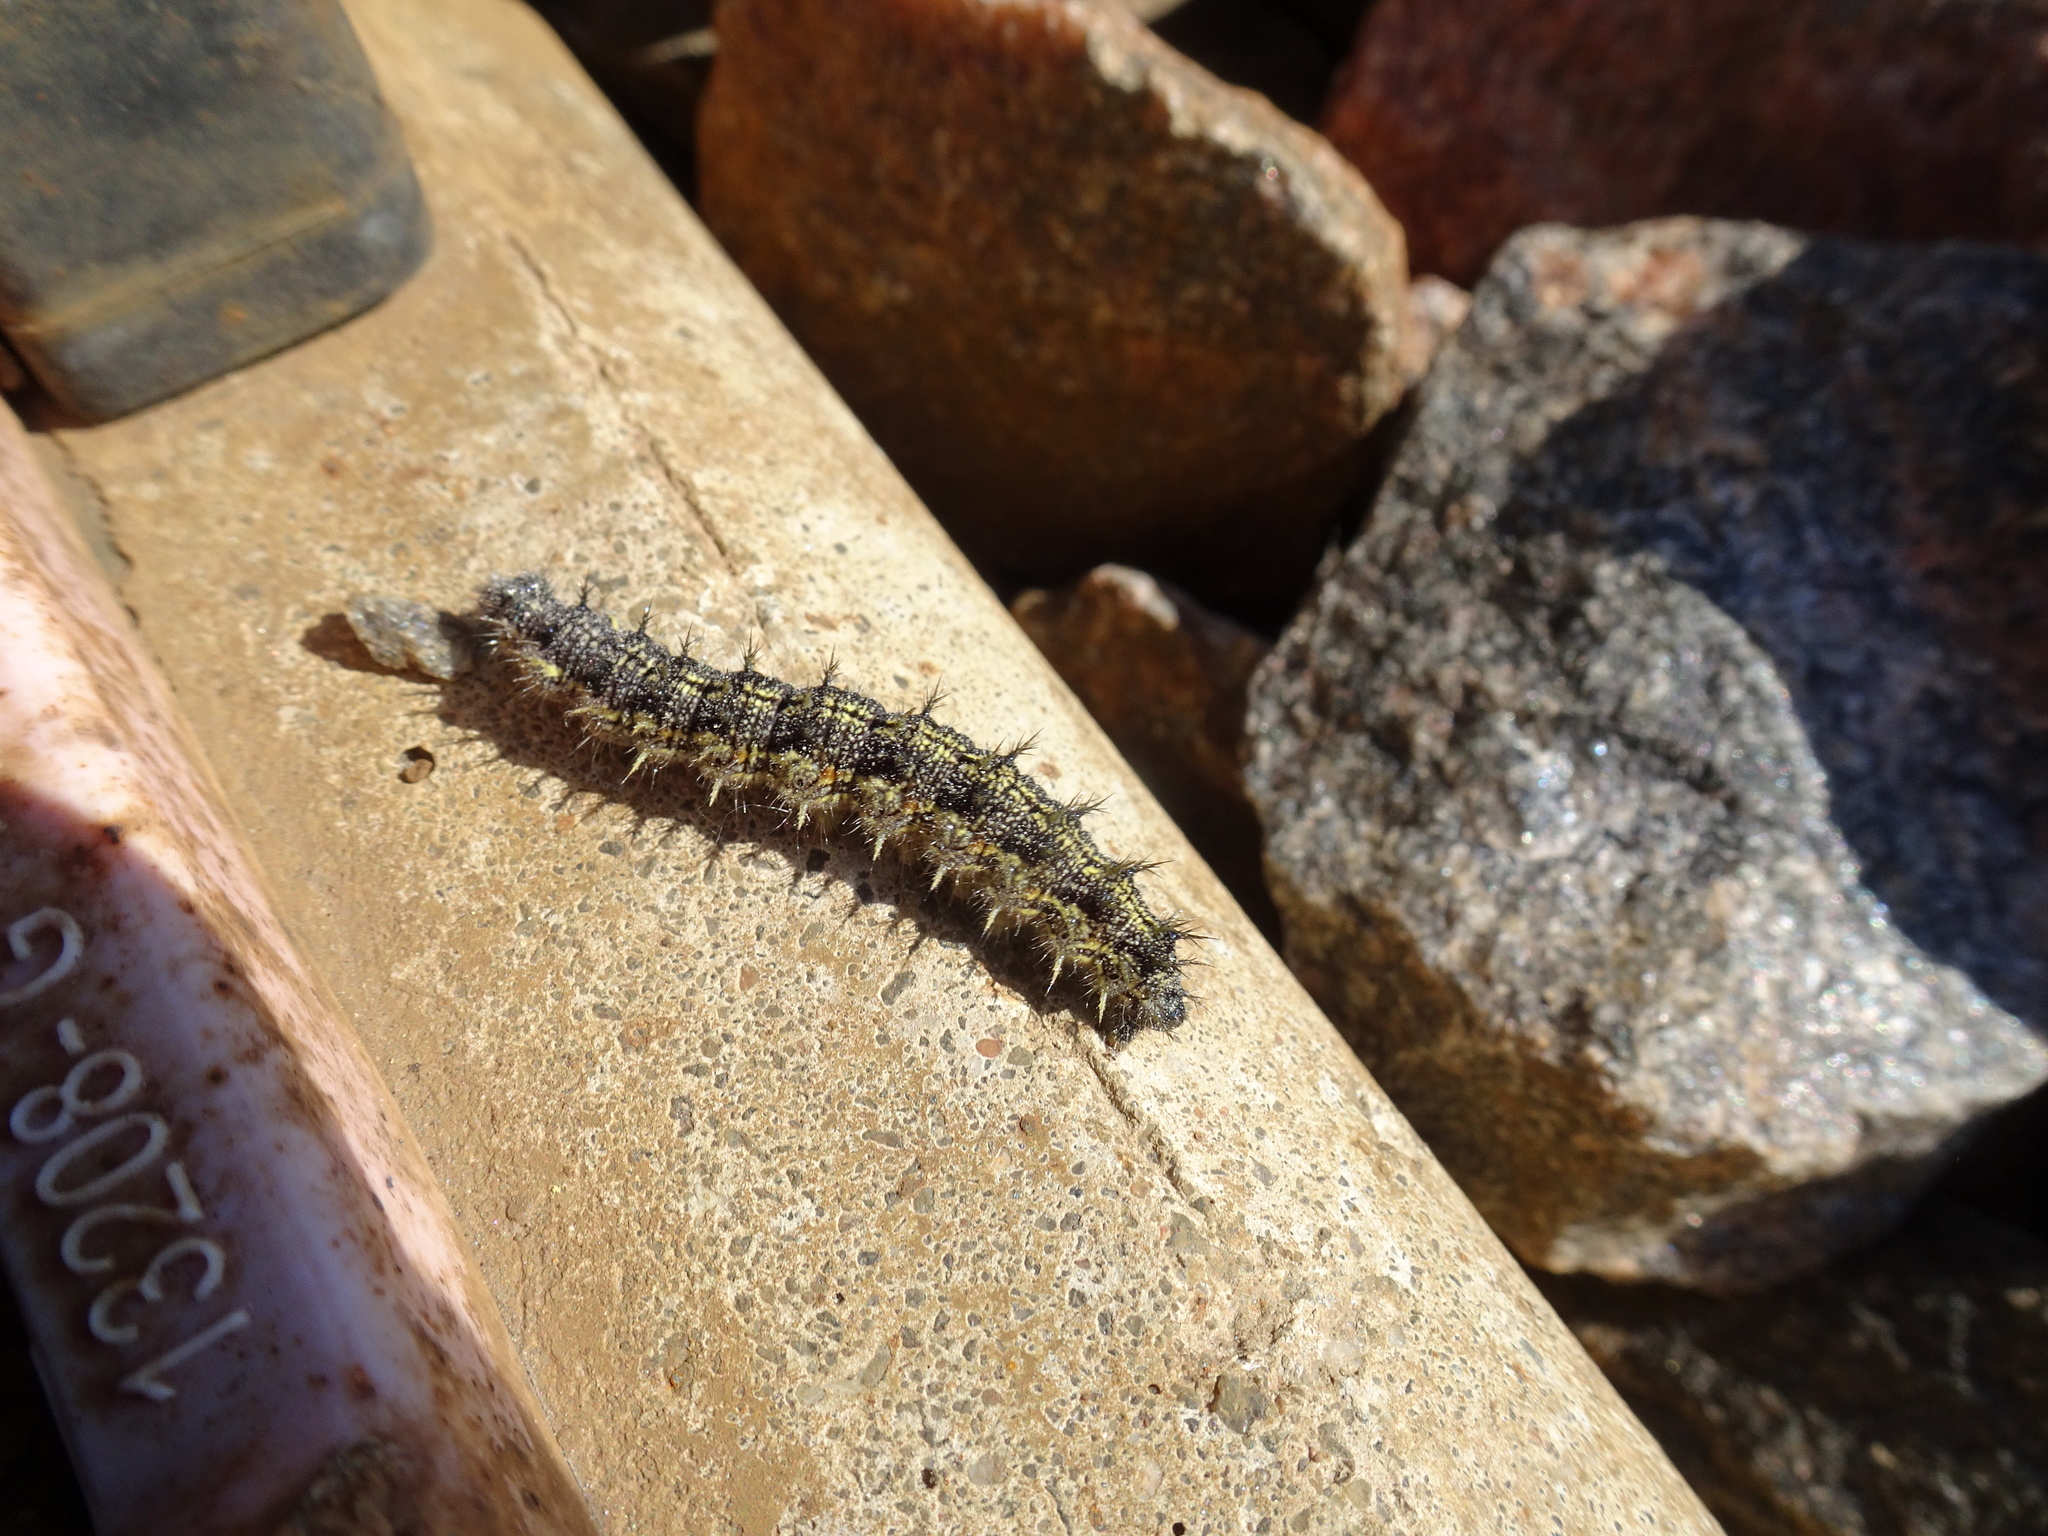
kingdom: Animalia
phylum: Arthropoda
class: Insecta
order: Lepidoptera
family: Nymphalidae
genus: Aglais
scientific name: Aglais urticae
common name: Small tortoiseshell
